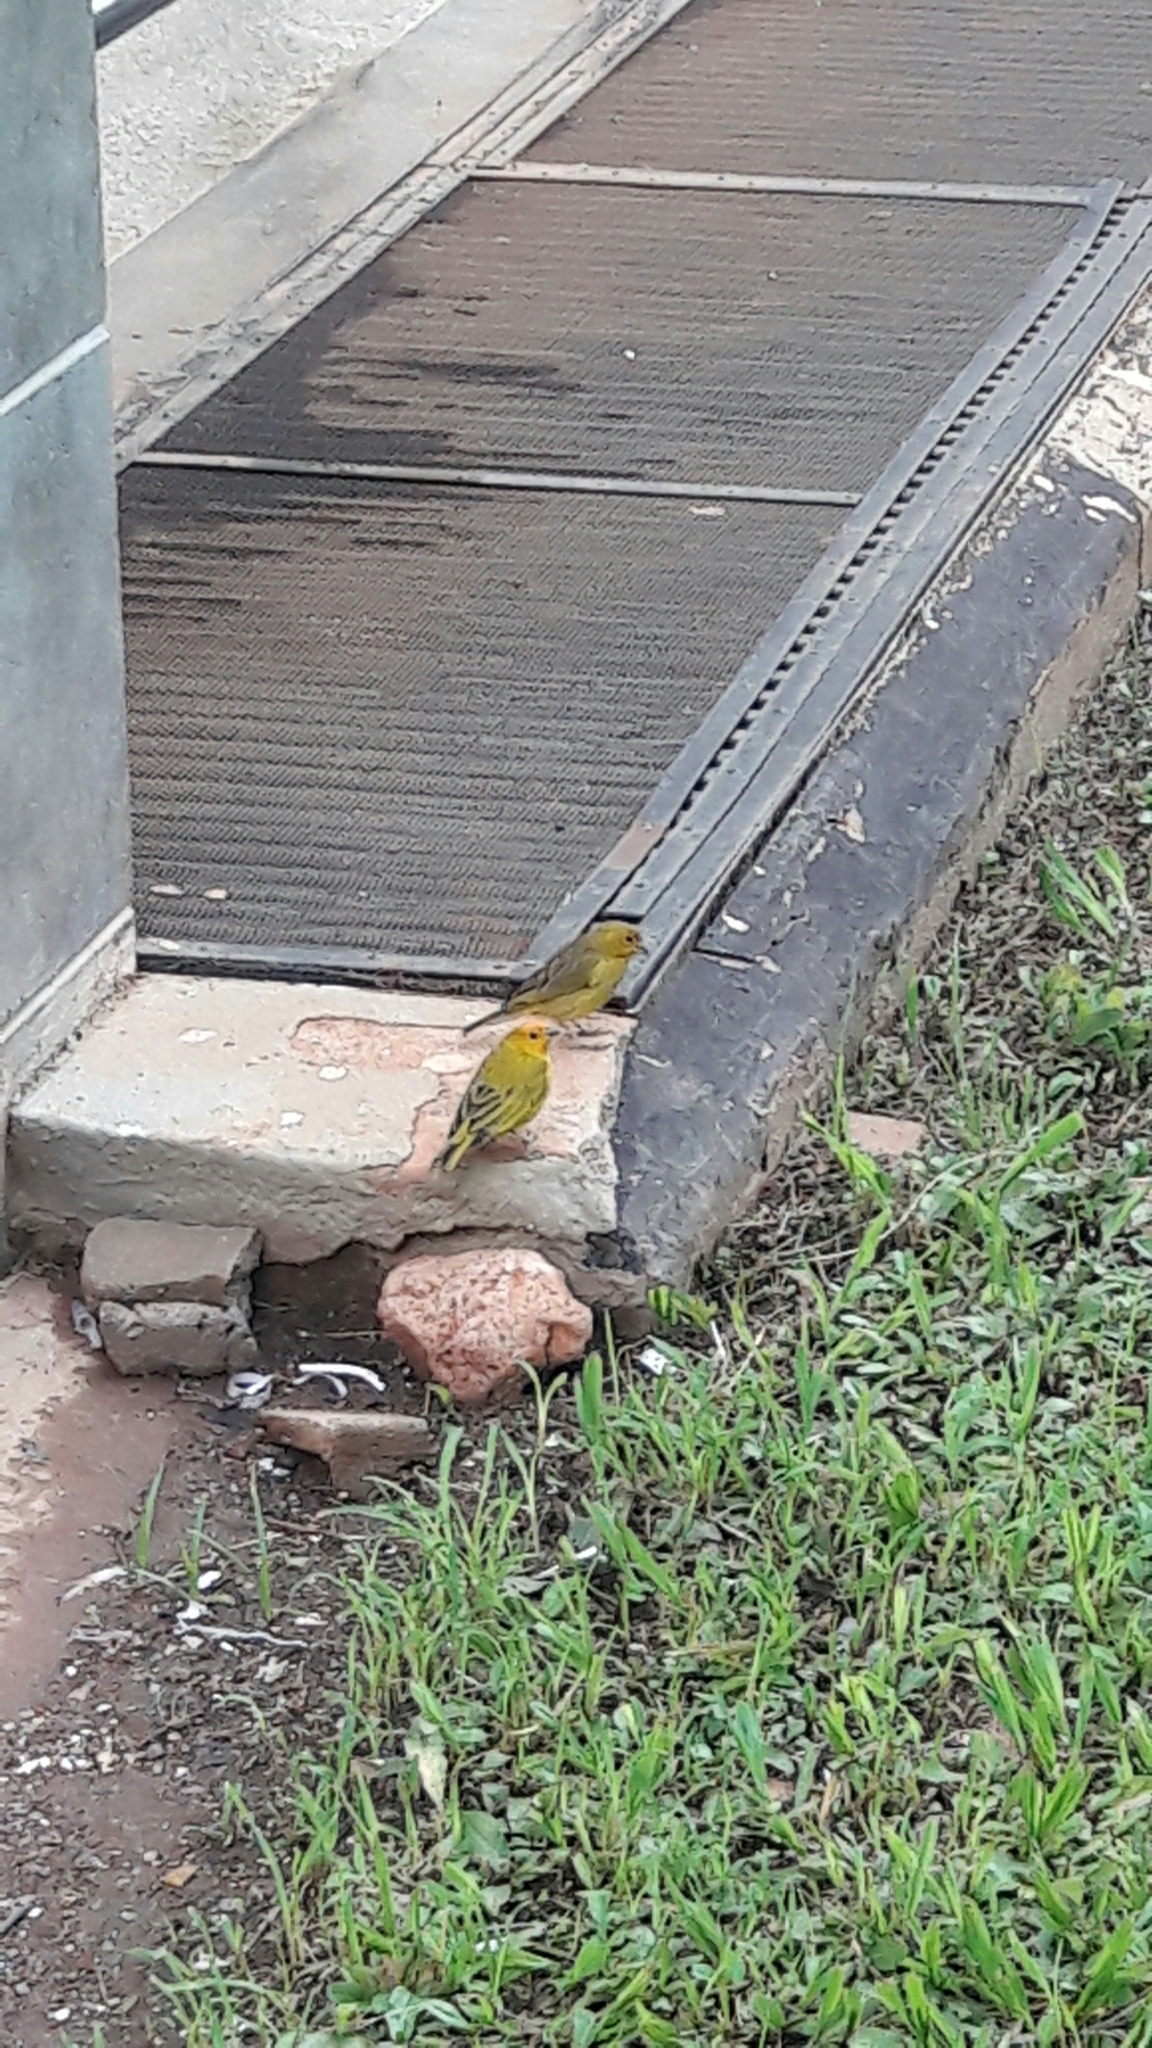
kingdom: Animalia
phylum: Chordata
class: Aves
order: Passeriformes
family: Thraupidae
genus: Sicalis
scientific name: Sicalis flaveola
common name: Saffron finch
